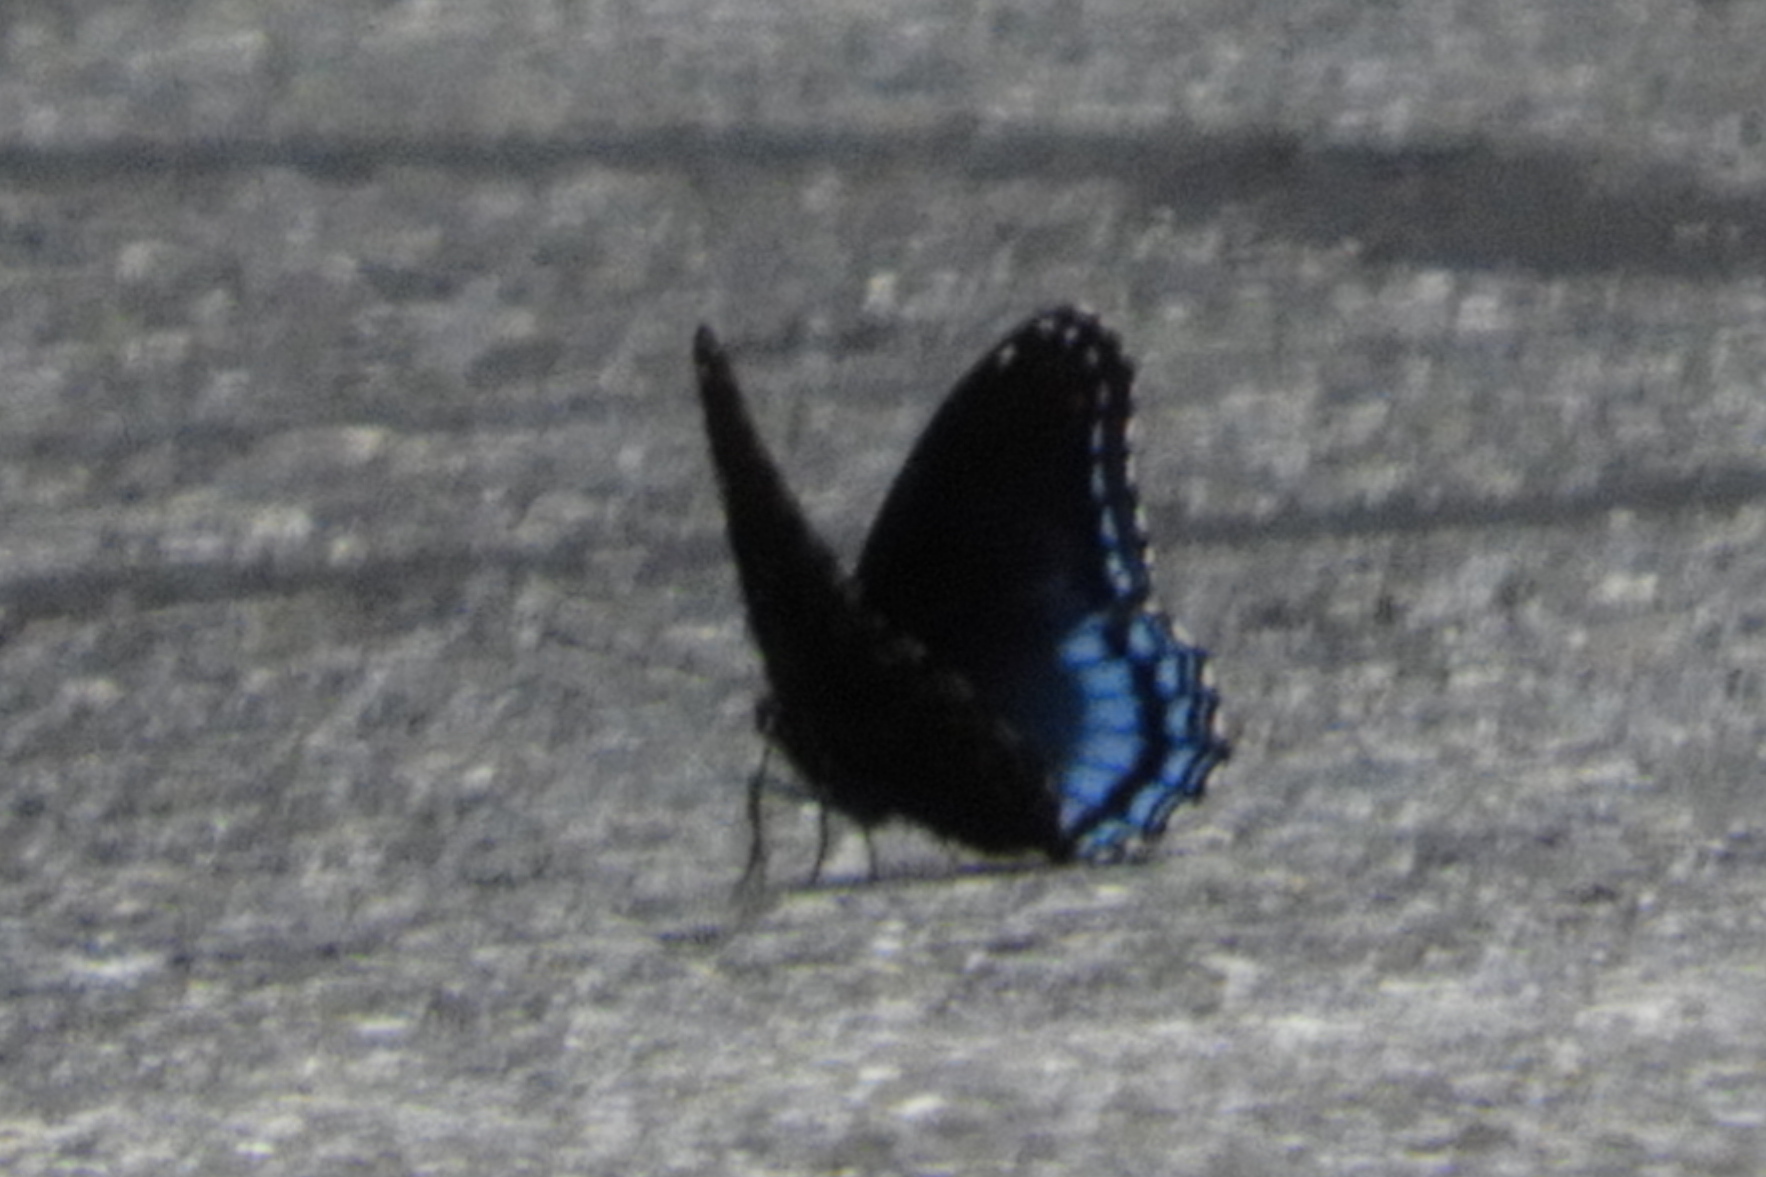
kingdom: Animalia
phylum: Arthropoda
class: Insecta
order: Lepidoptera
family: Nymphalidae
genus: Limenitis
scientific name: Limenitis astyanax
